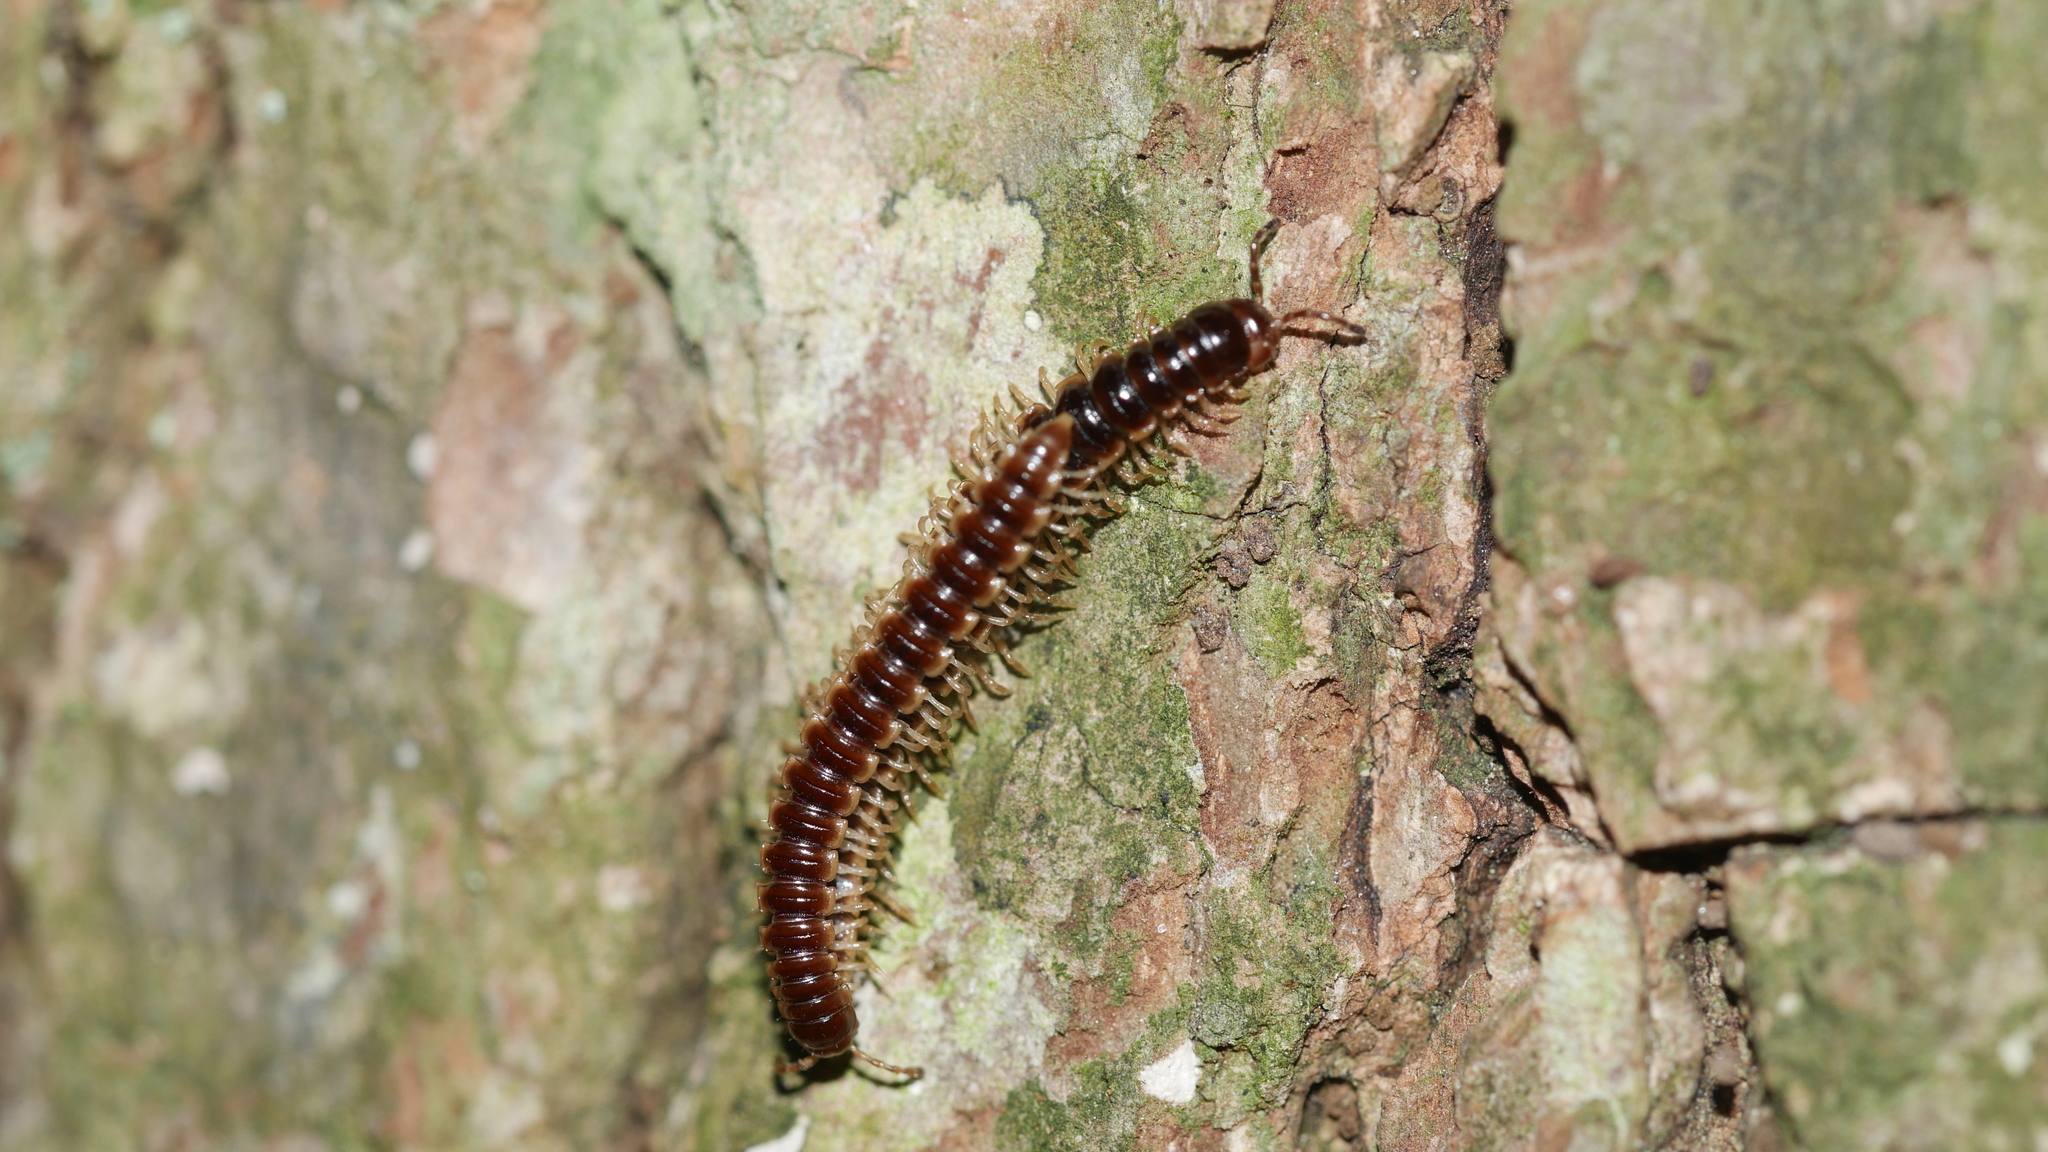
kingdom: Animalia
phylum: Arthropoda
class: Diplopoda
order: Polydesmida
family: Paradoxosomatidae
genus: Oxidus
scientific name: Oxidus gracilis
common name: Greenhouse millipede
